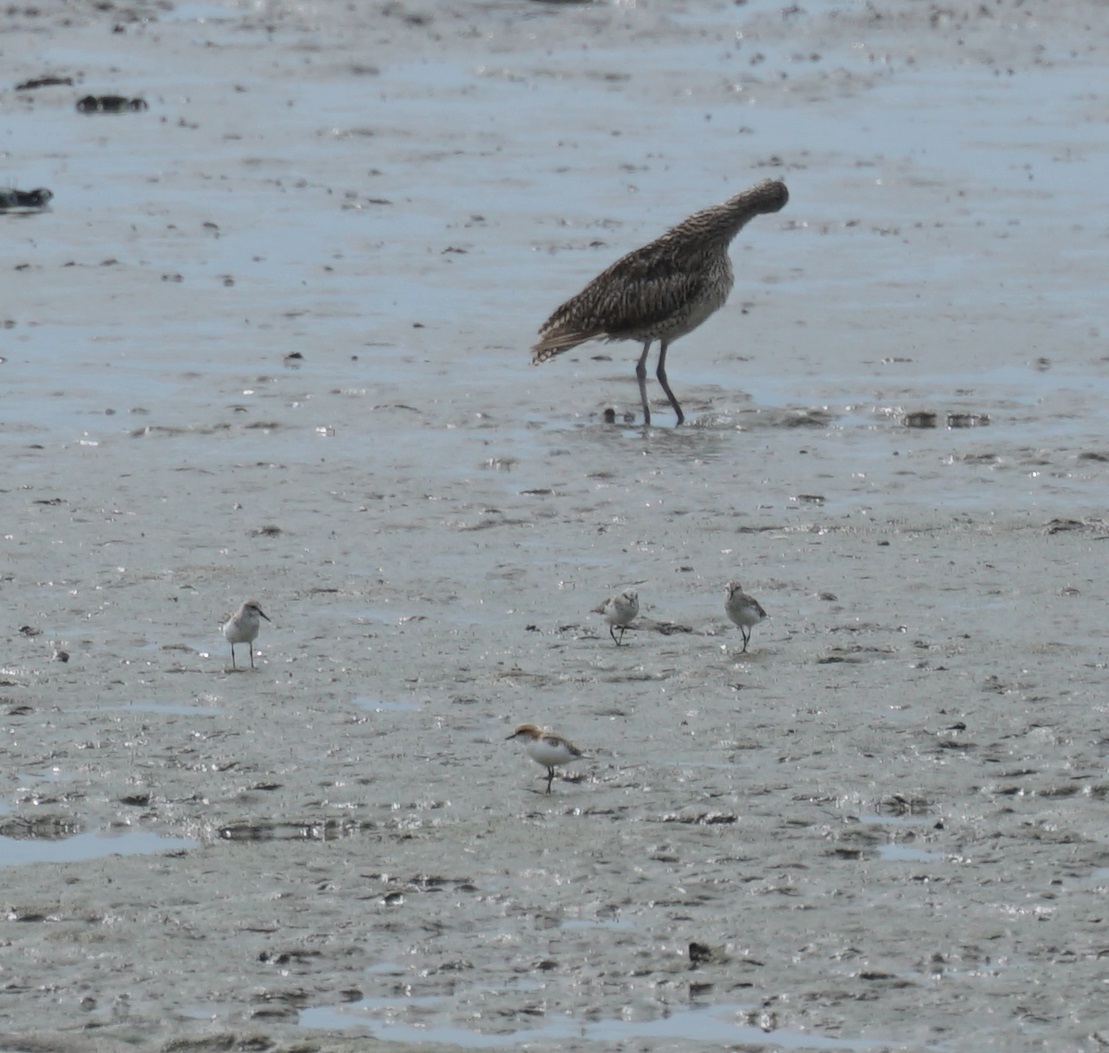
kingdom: Animalia
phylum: Chordata
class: Aves
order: Charadriiformes
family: Charadriidae
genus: Anarhynchus
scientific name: Anarhynchus
